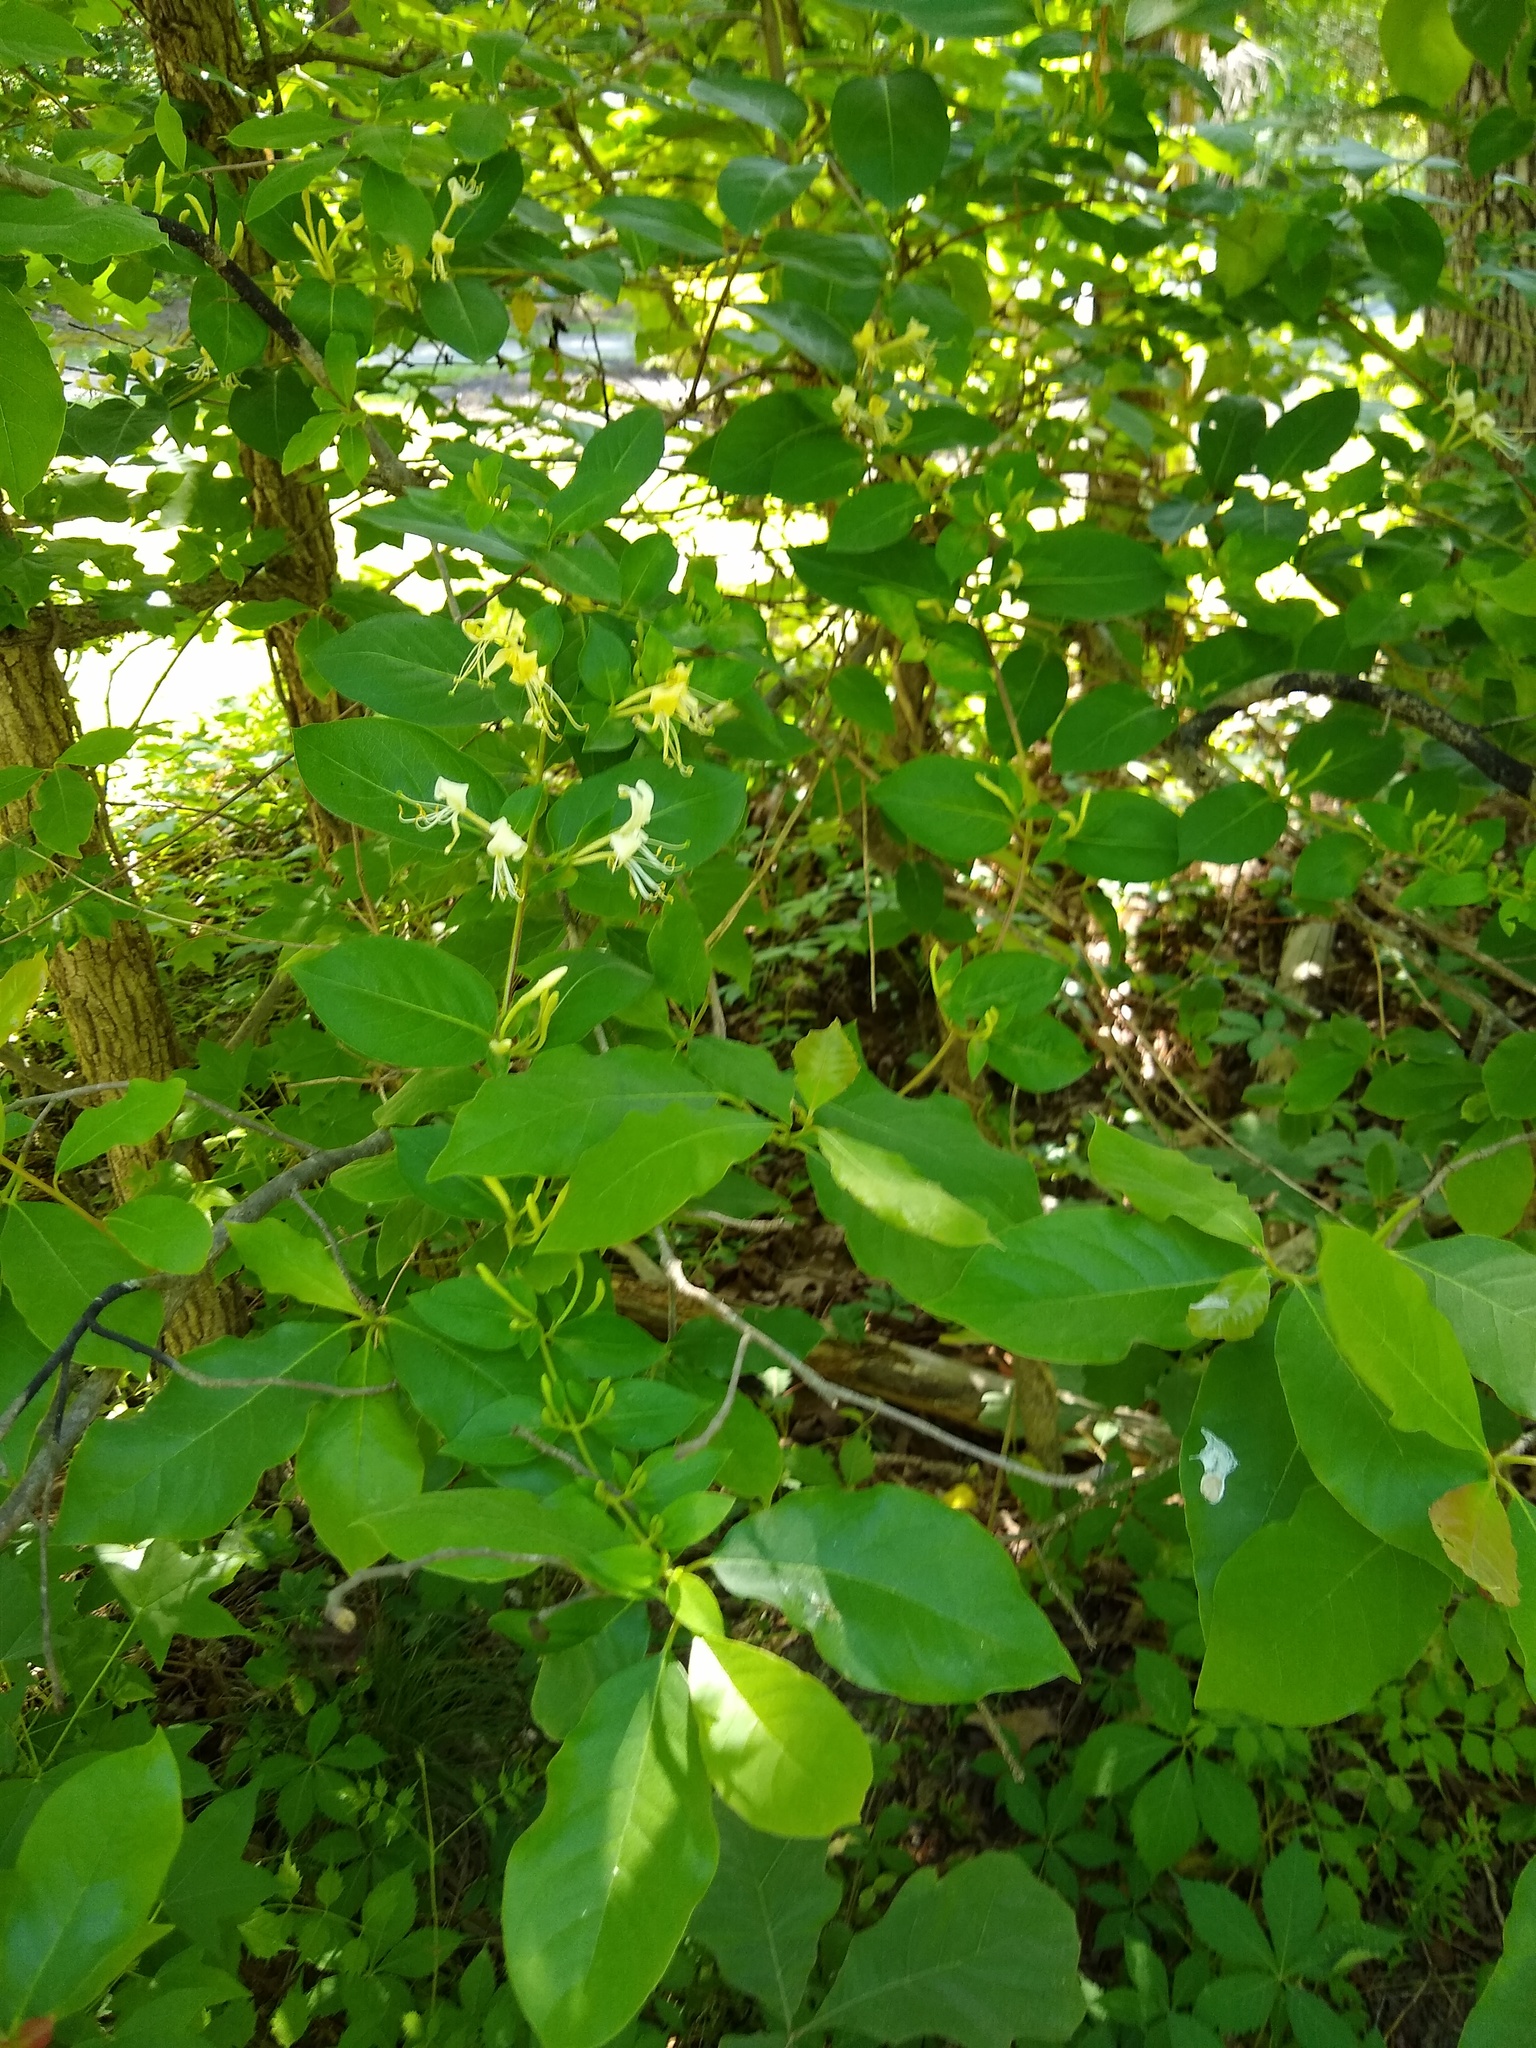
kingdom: Plantae
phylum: Tracheophyta
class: Magnoliopsida
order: Dipsacales
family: Caprifoliaceae
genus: Lonicera
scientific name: Lonicera japonica
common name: Japanese honeysuckle
